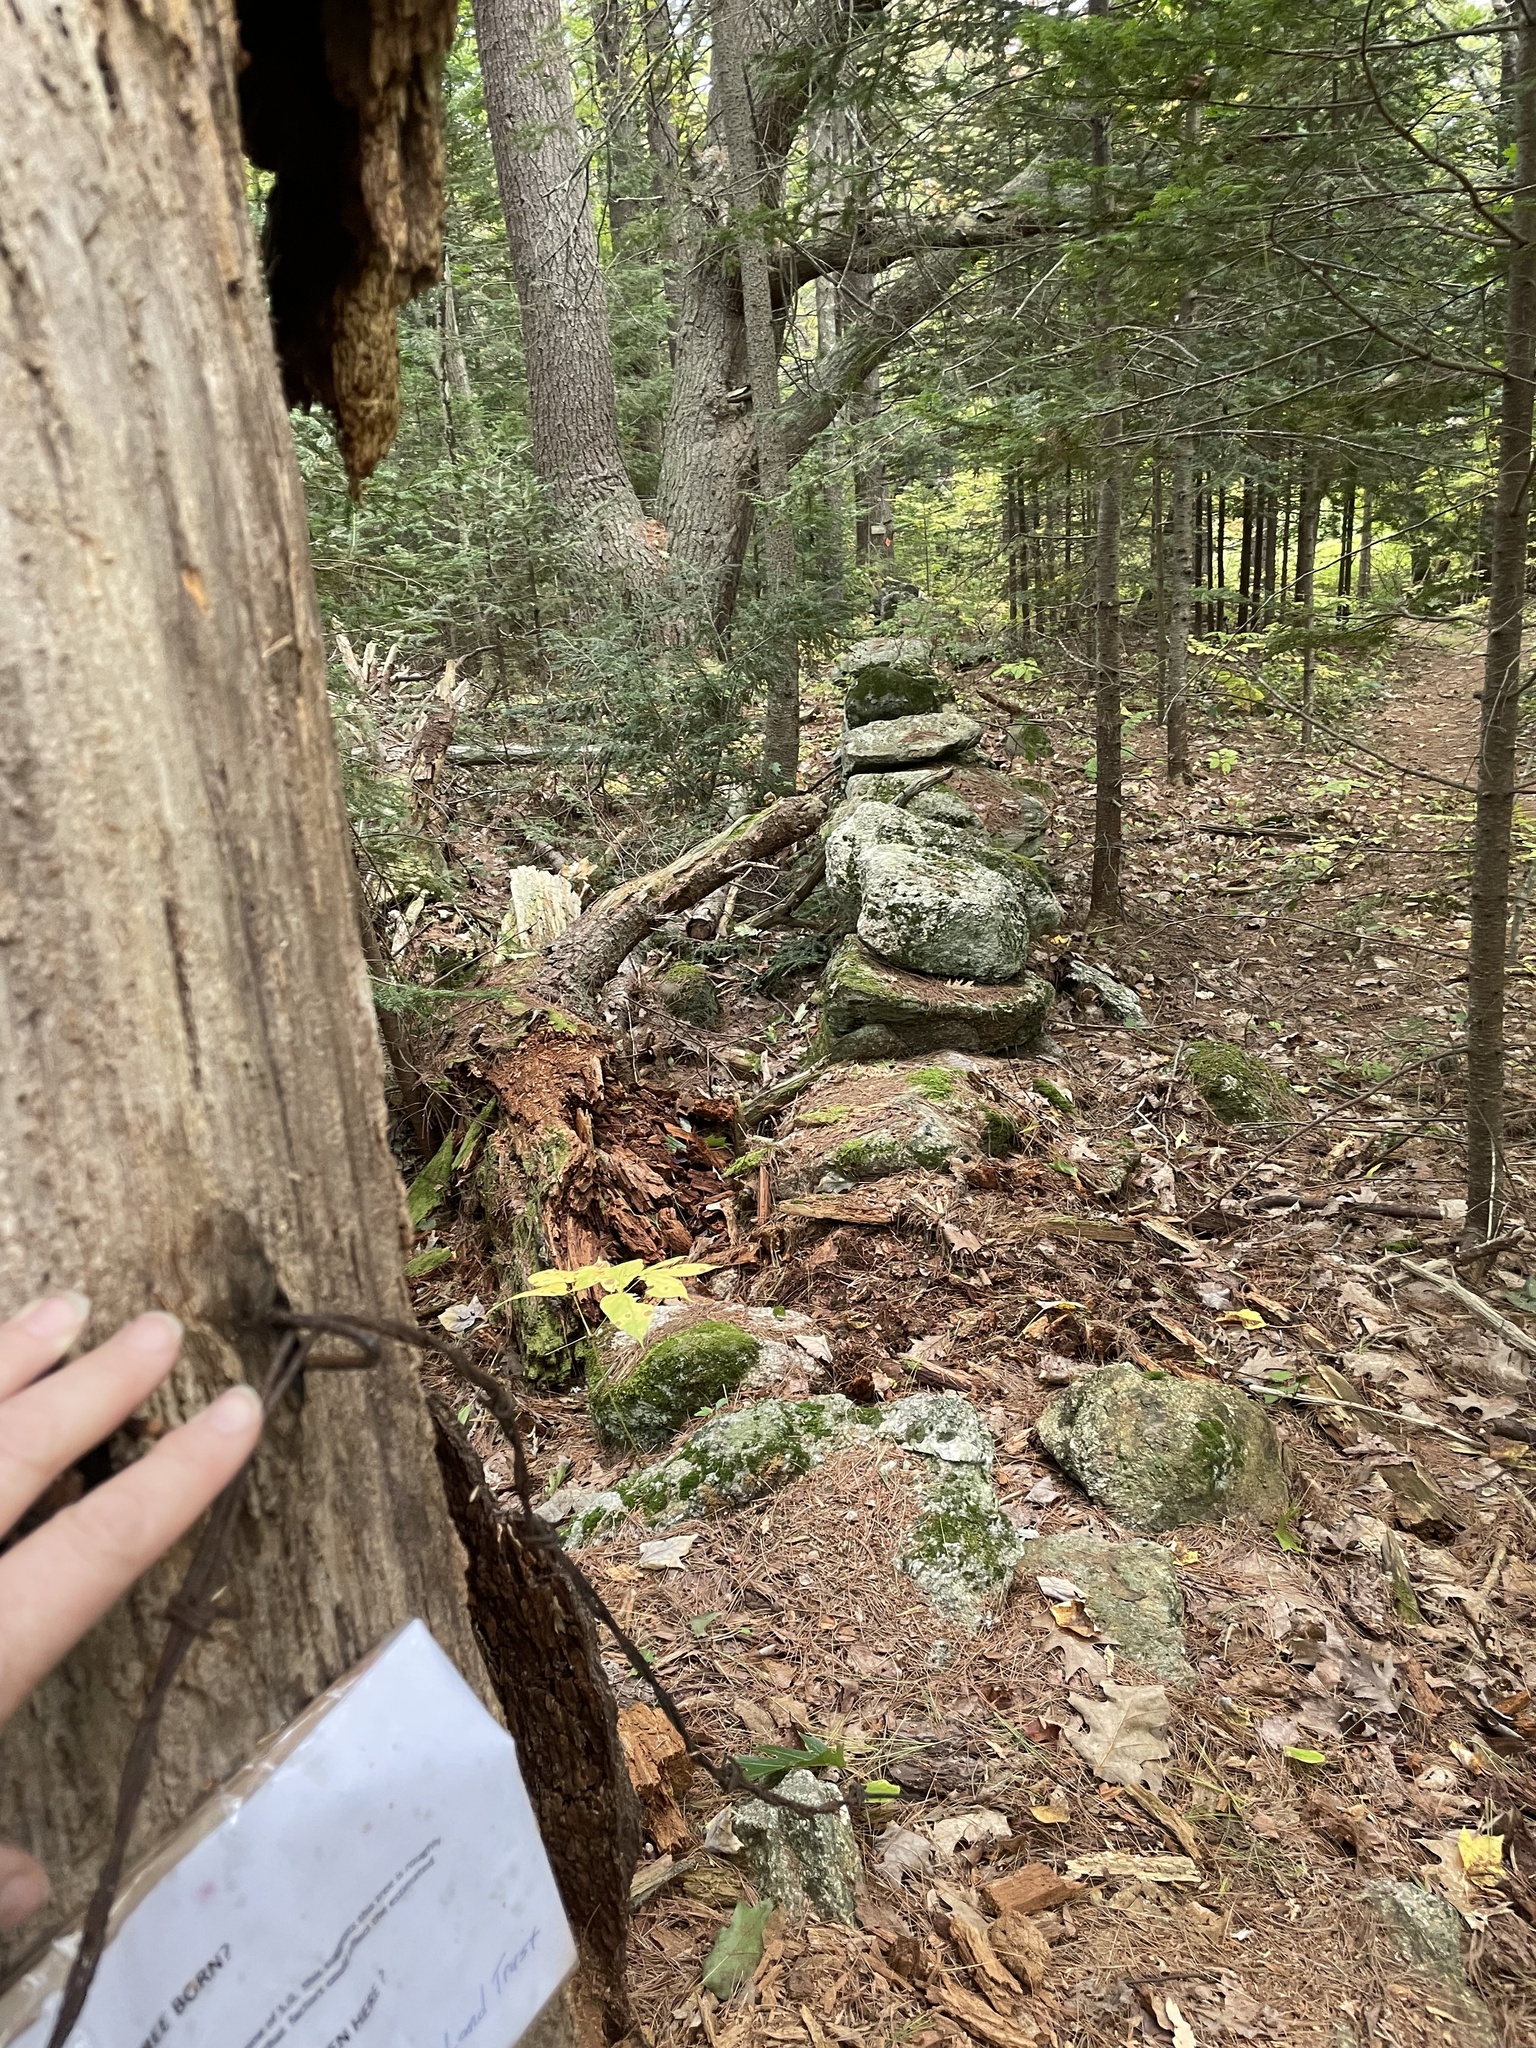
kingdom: Plantae
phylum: Tracheophyta
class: Pinopsida
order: Pinales
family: Pinaceae
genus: Pinus
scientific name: Pinus strobus
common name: Weymouth pine
